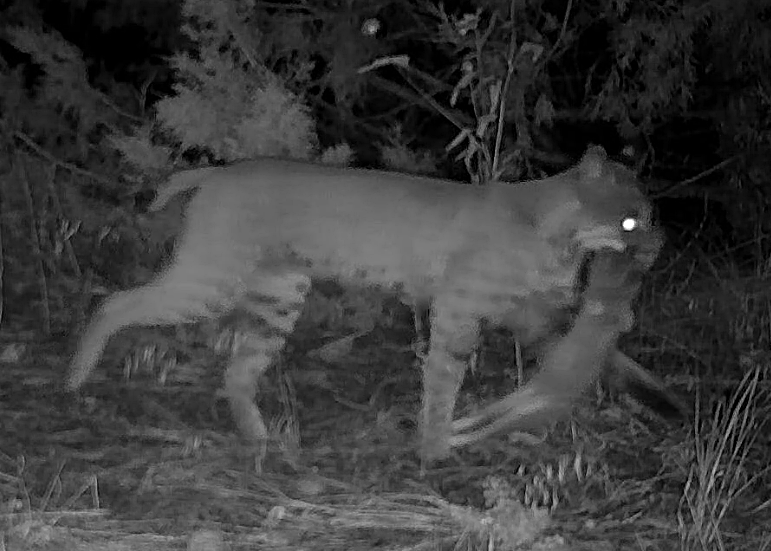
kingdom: Animalia
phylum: Chordata
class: Mammalia
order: Carnivora
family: Felidae
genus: Lynx
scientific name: Lynx rufus
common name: Bobcat
